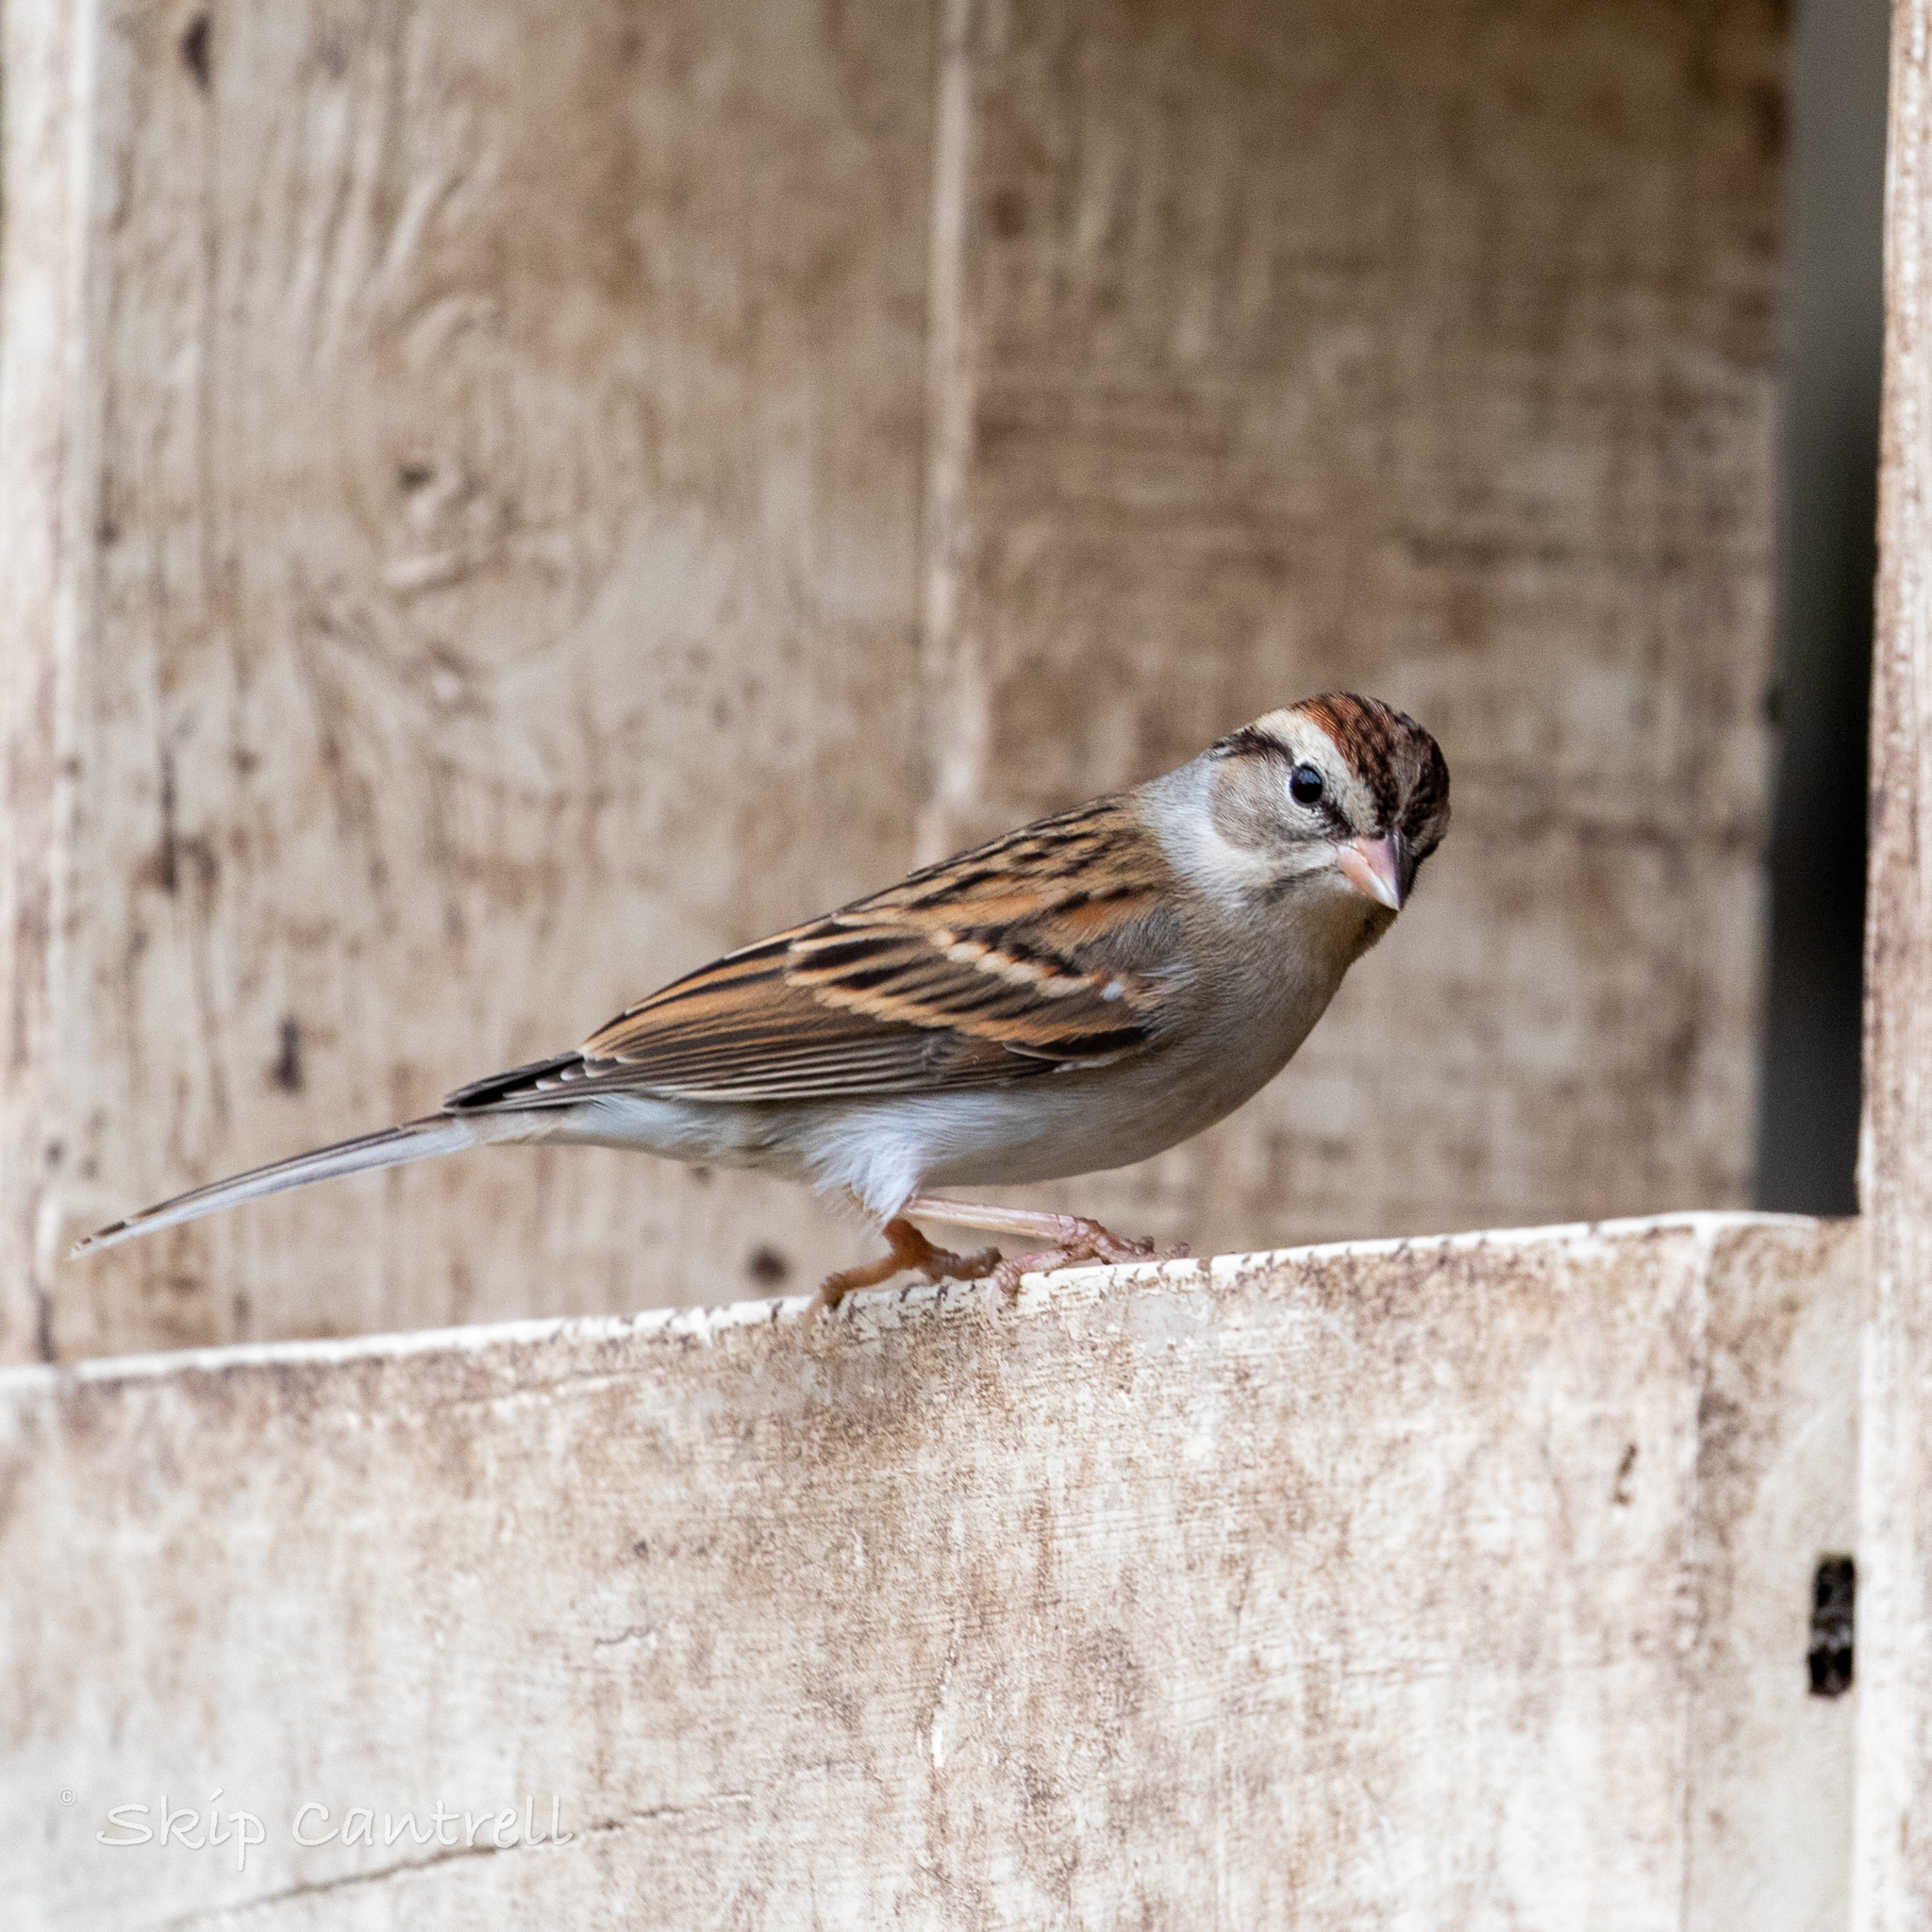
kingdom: Animalia
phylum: Chordata
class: Aves
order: Passeriformes
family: Passerellidae
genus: Spizella
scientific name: Spizella passerina
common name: Chipping sparrow
